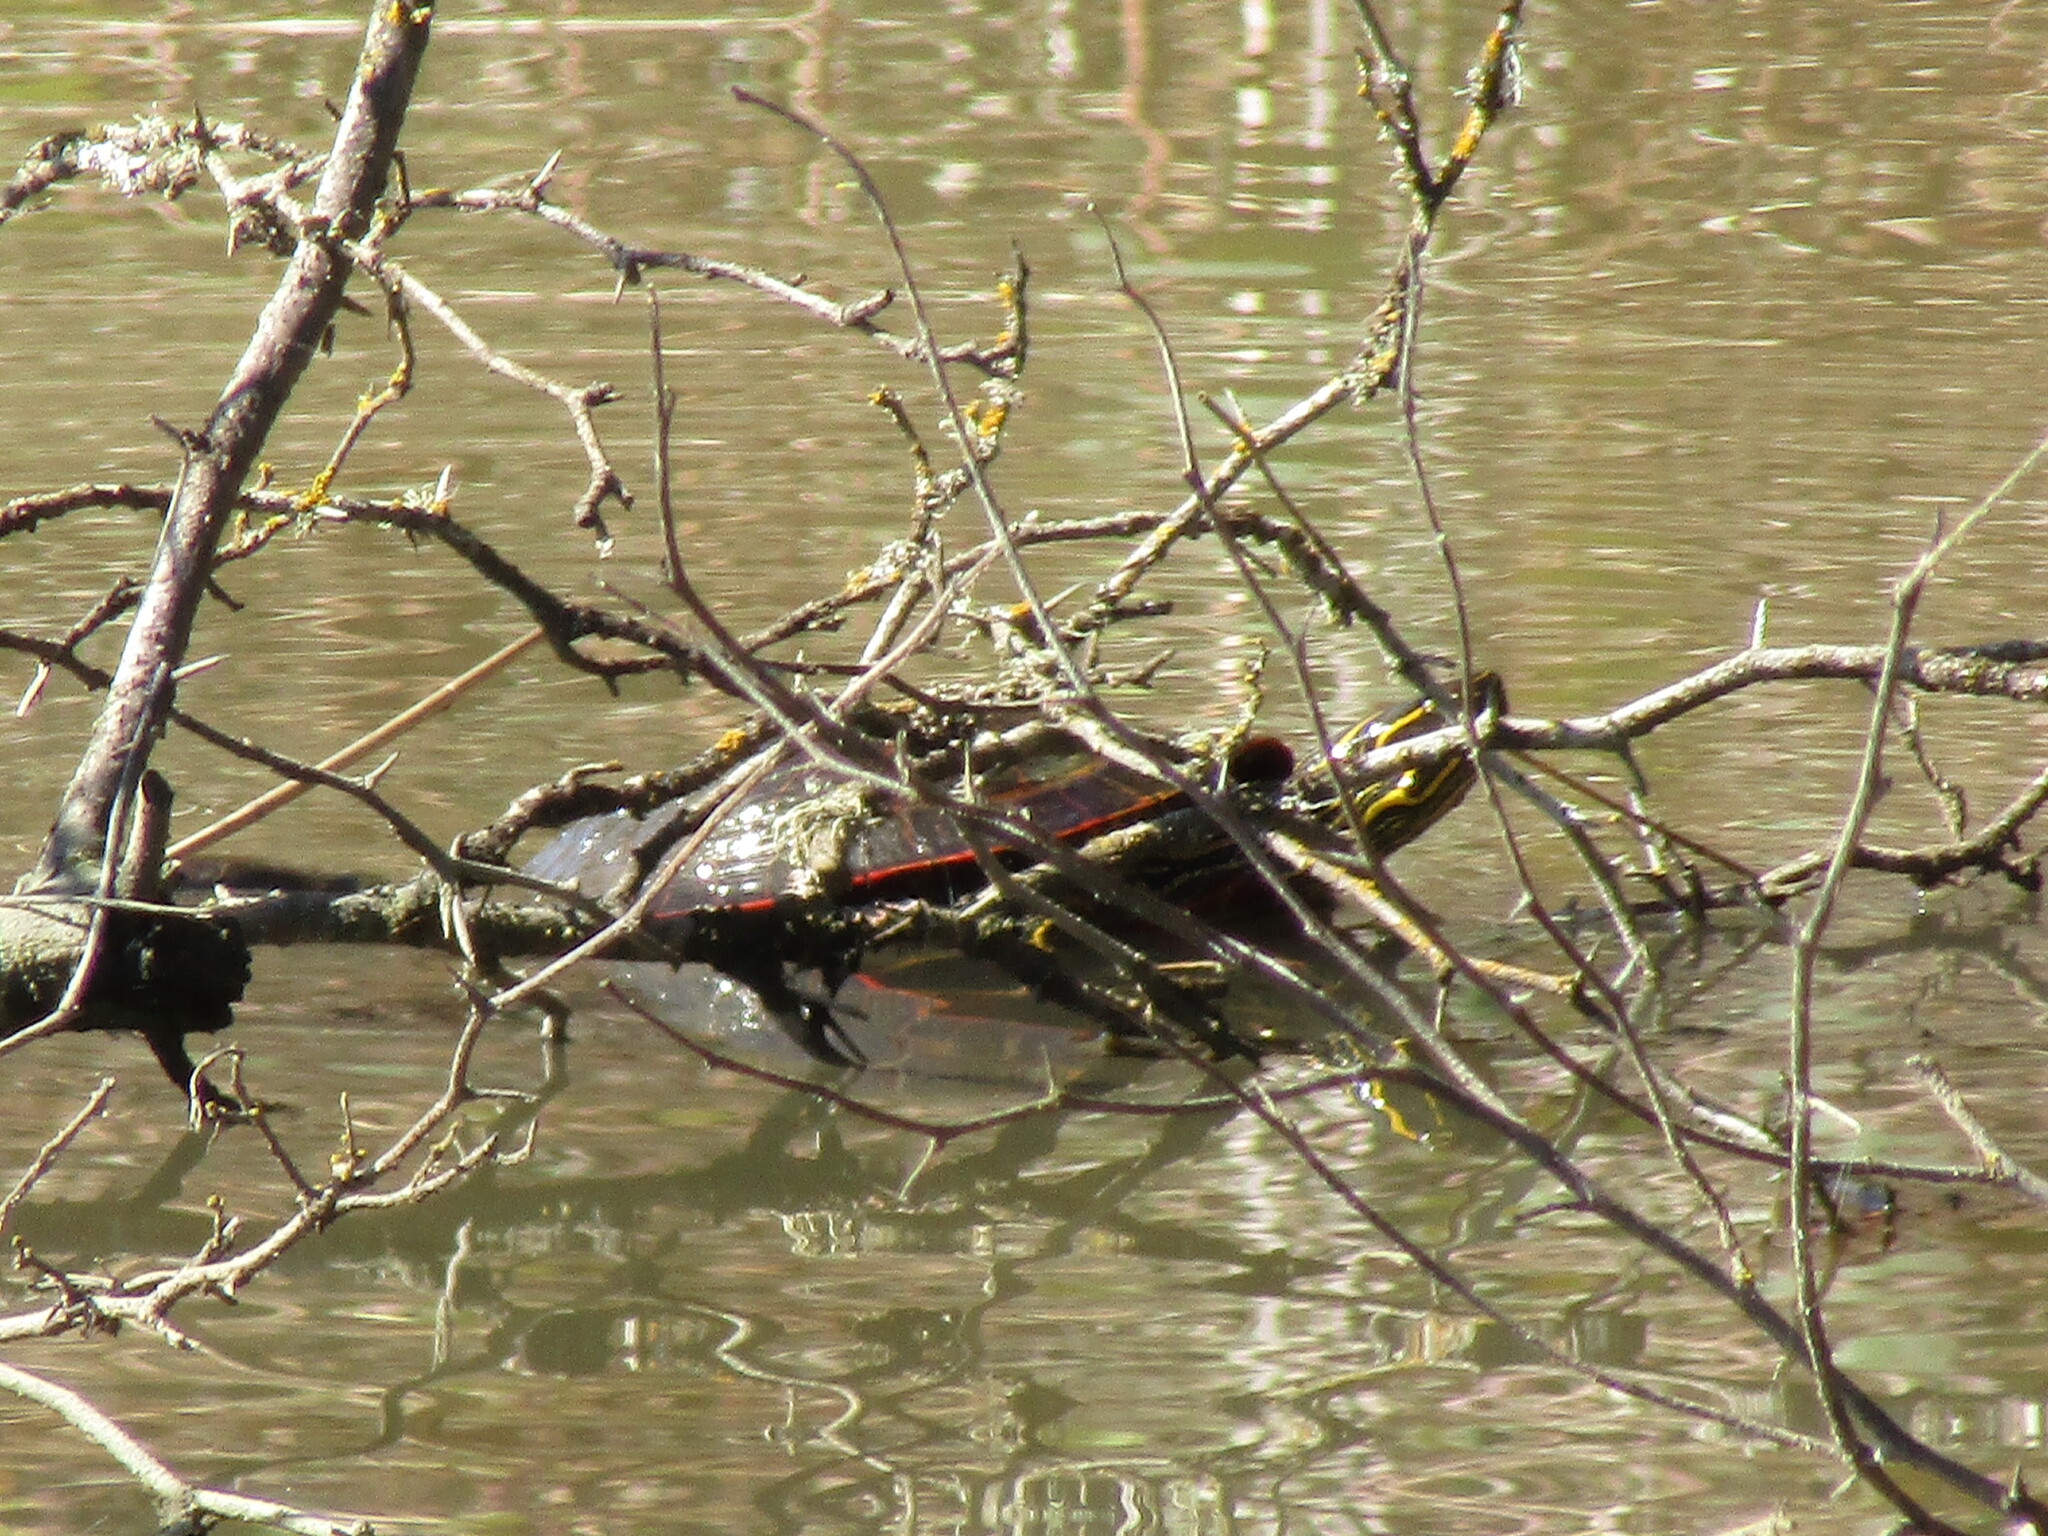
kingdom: Animalia
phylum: Chordata
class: Testudines
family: Emydidae
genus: Chrysemys
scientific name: Chrysemys picta
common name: Painted turtle
